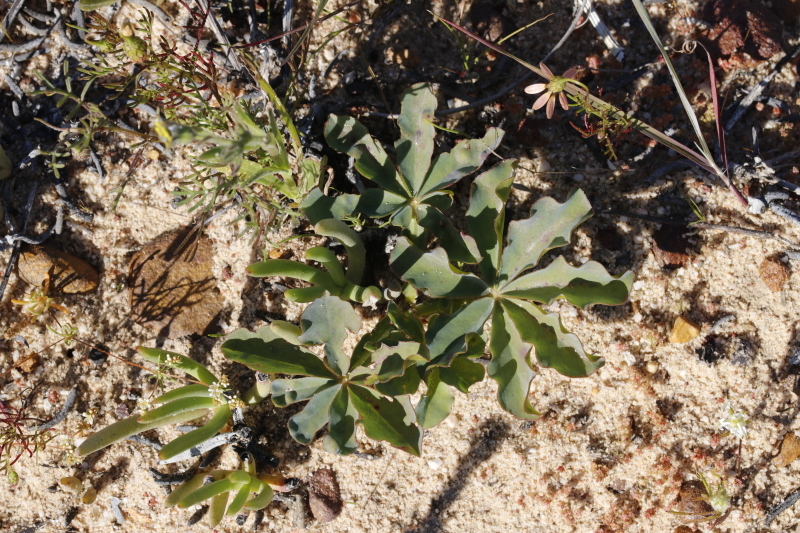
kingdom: Plantae
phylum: Tracheophyta
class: Magnoliopsida
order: Oxalidales
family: Oxalidaceae
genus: Oxalis
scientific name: Oxalis flava
